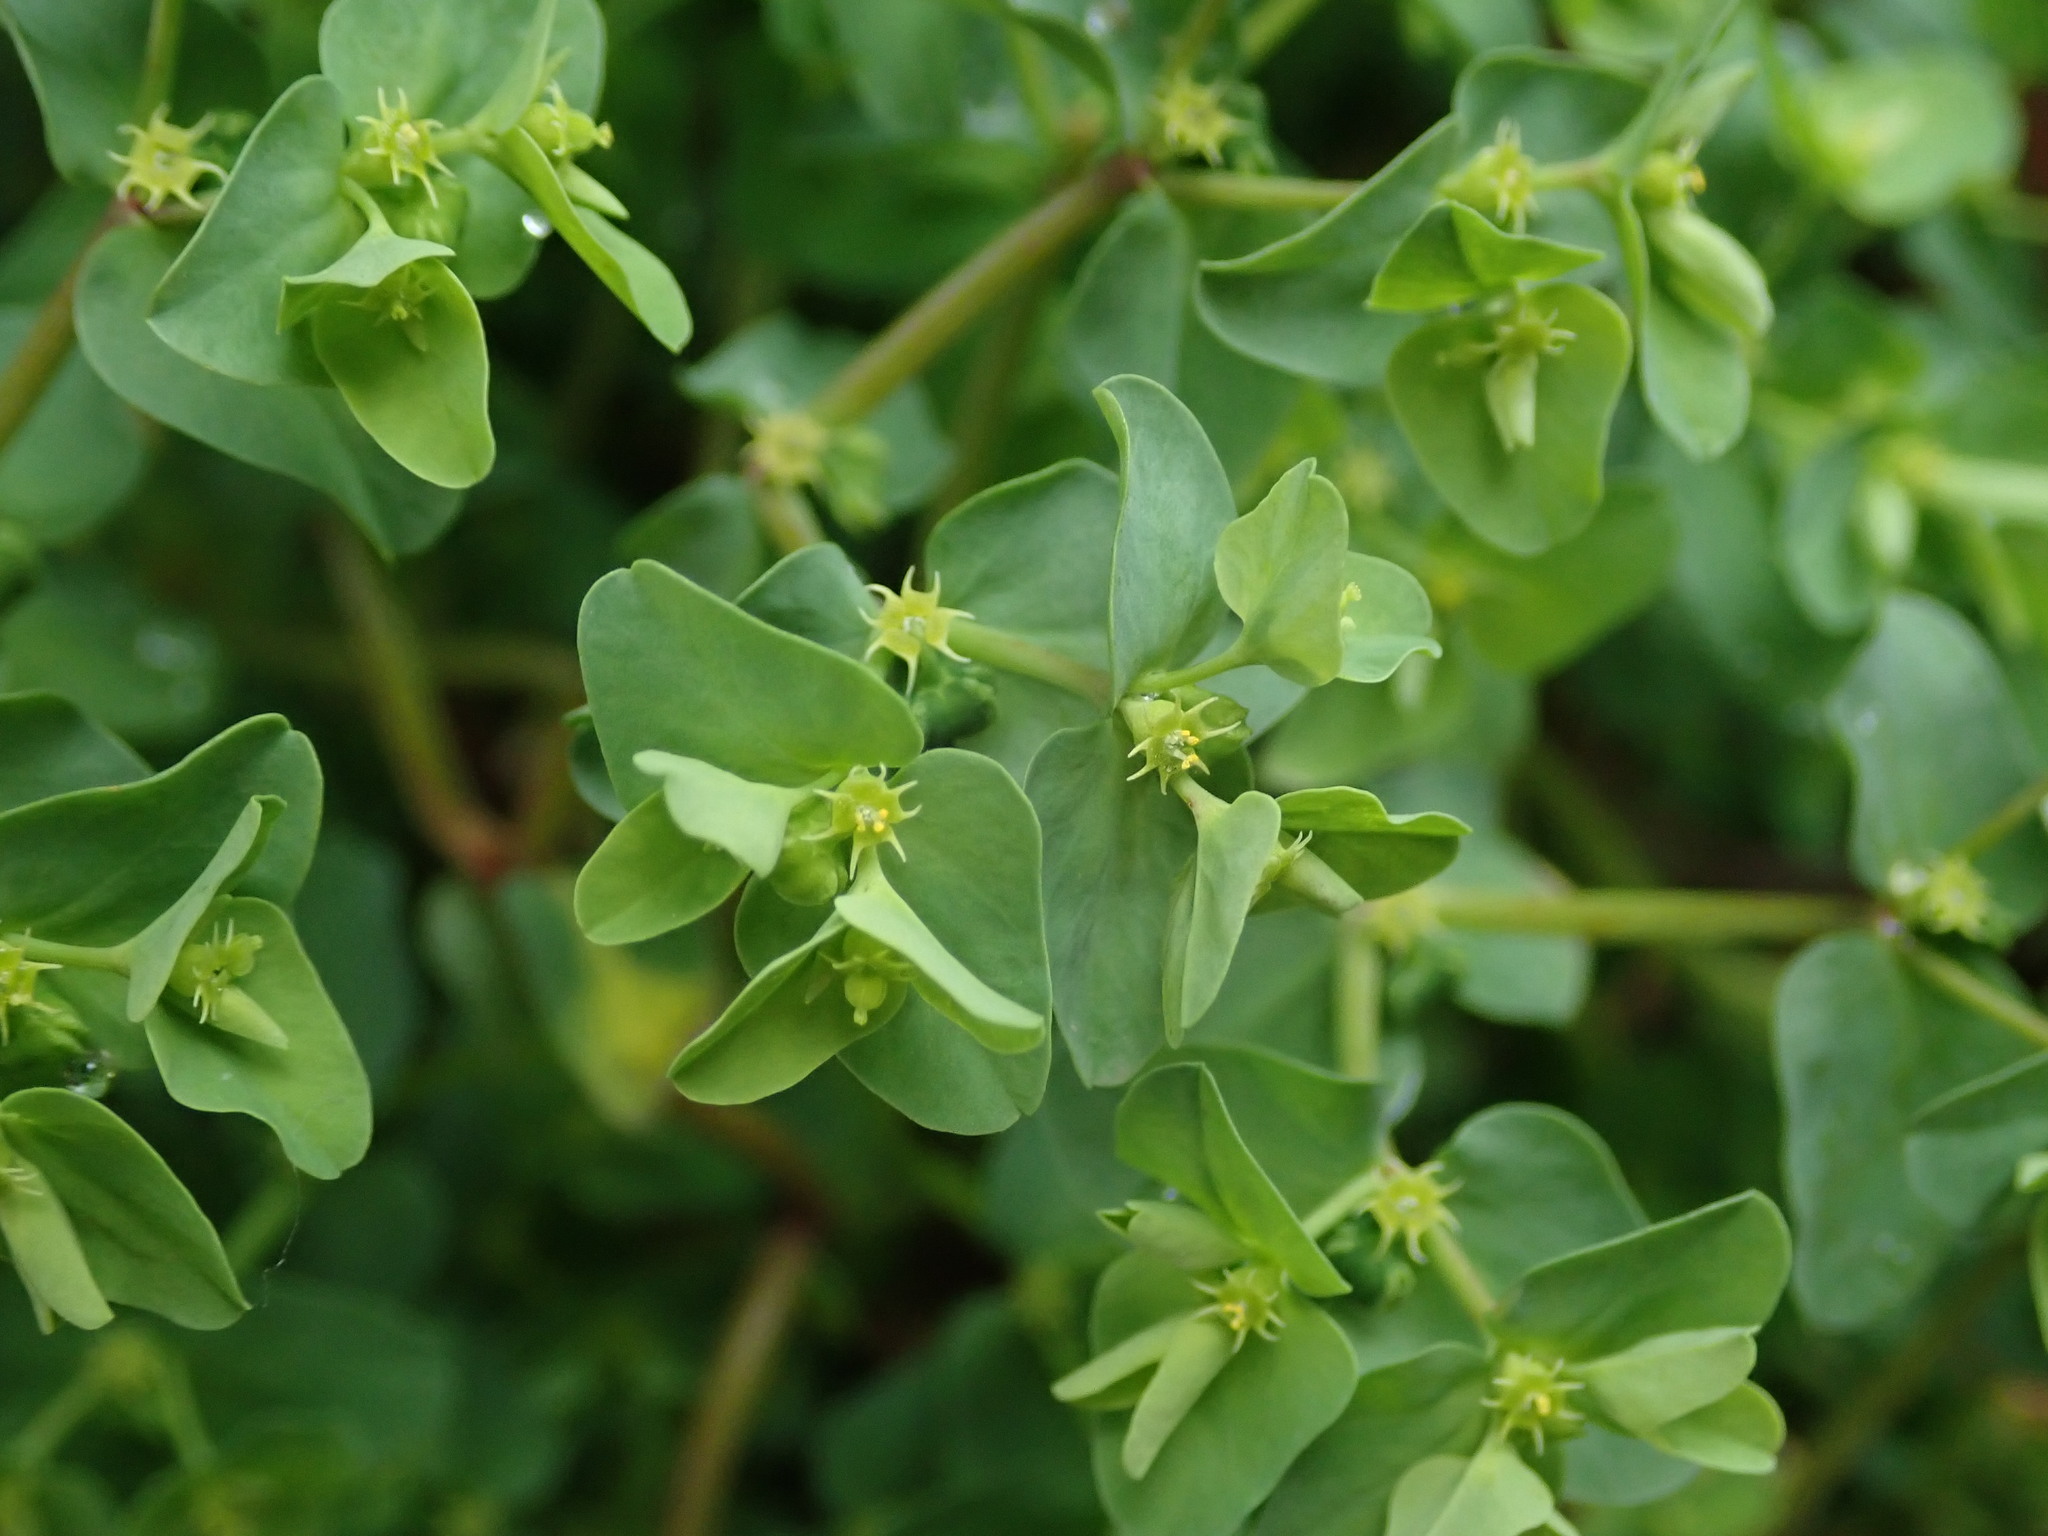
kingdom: Plantae
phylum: Tracheophyta
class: Magnoliopsida
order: Malpighiales
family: Euphorbiaceae
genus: Euphorbia
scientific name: Euphorbia peplus
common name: Petty spurge
